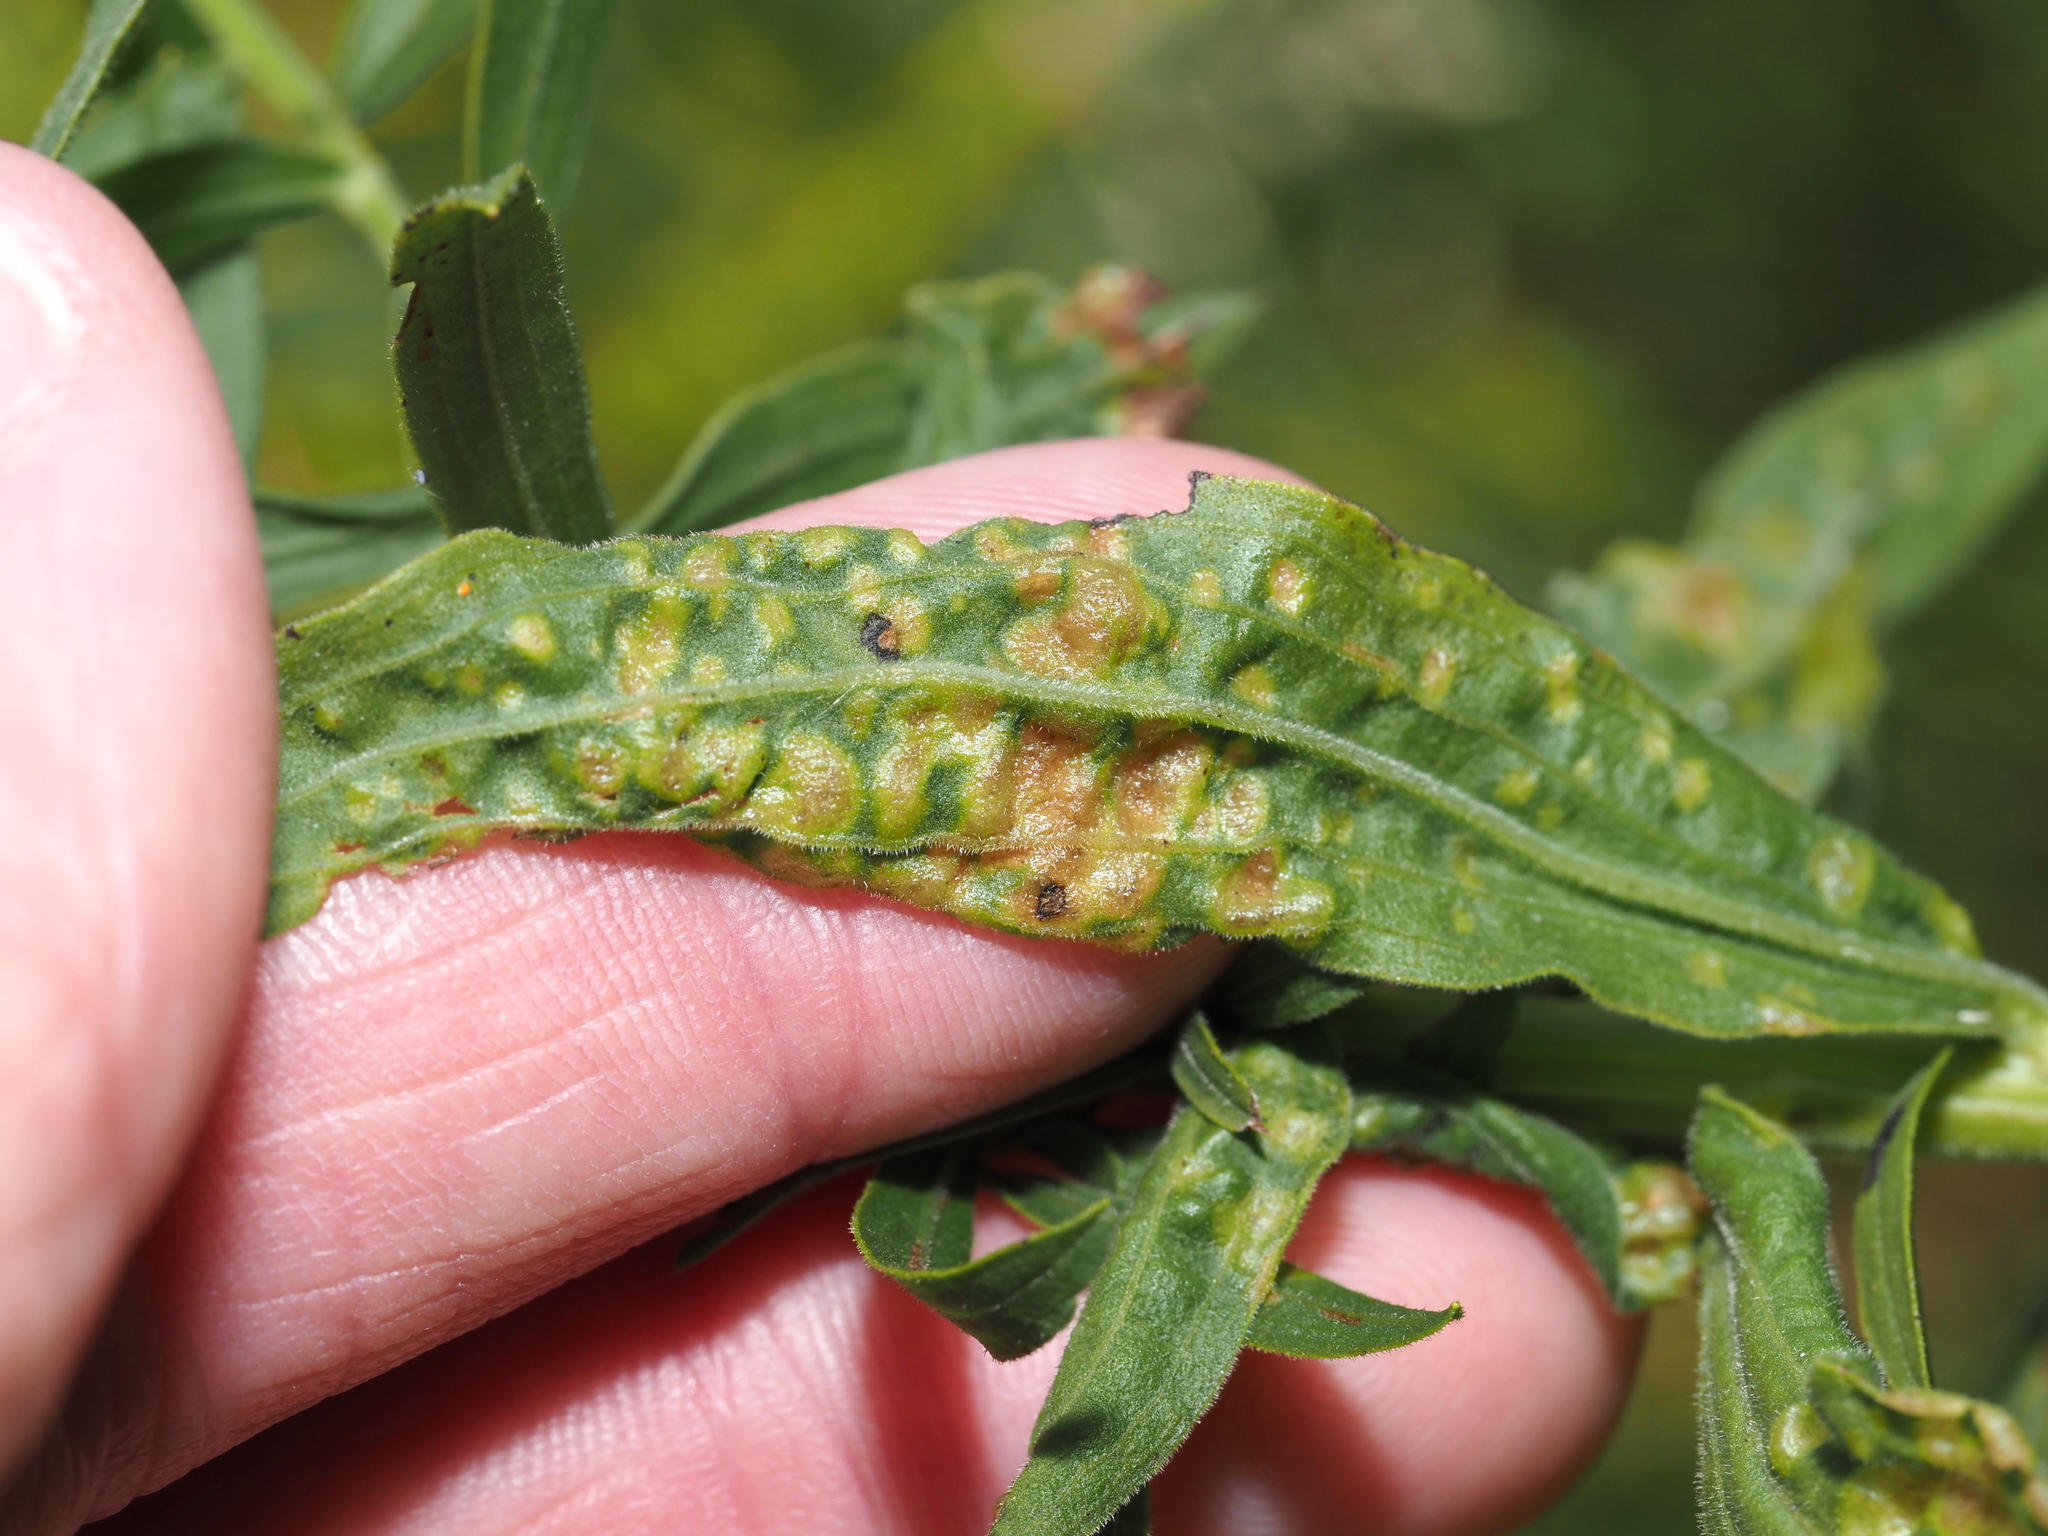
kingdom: Animalia
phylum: Arthropoda
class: Insecta
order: Diptera
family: Cecidomyiidae
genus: Dasineura
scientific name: Dasineura carbonaria
